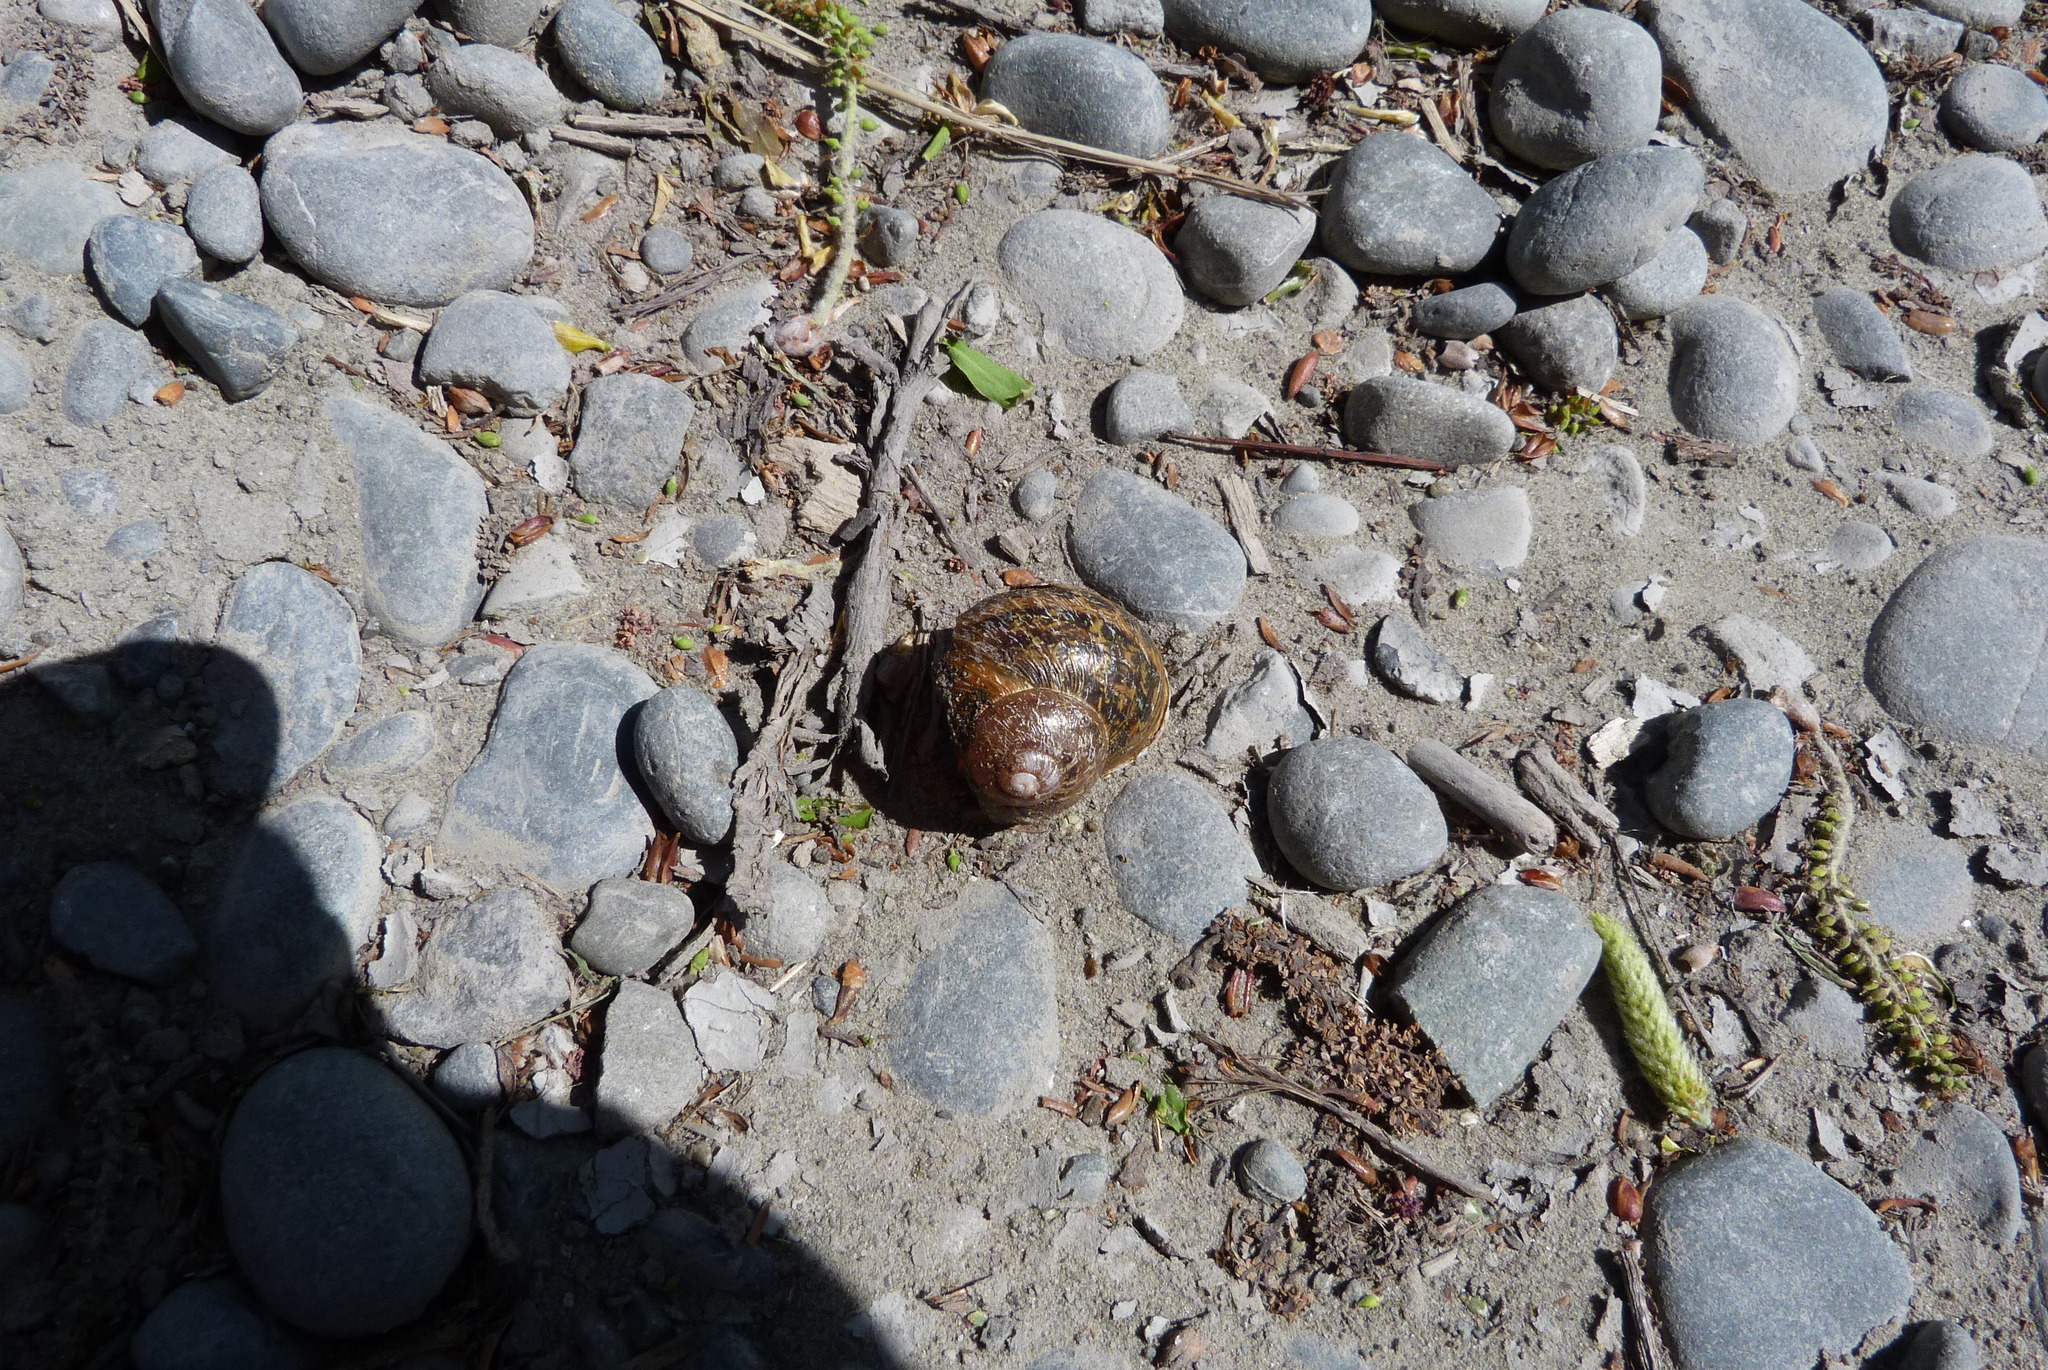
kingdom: Animalia
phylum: Mollusca
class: Gastropoda
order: Stylommatophora
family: Helicidae
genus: Cornu
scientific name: Cornu aspersum
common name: Brown garden snail
